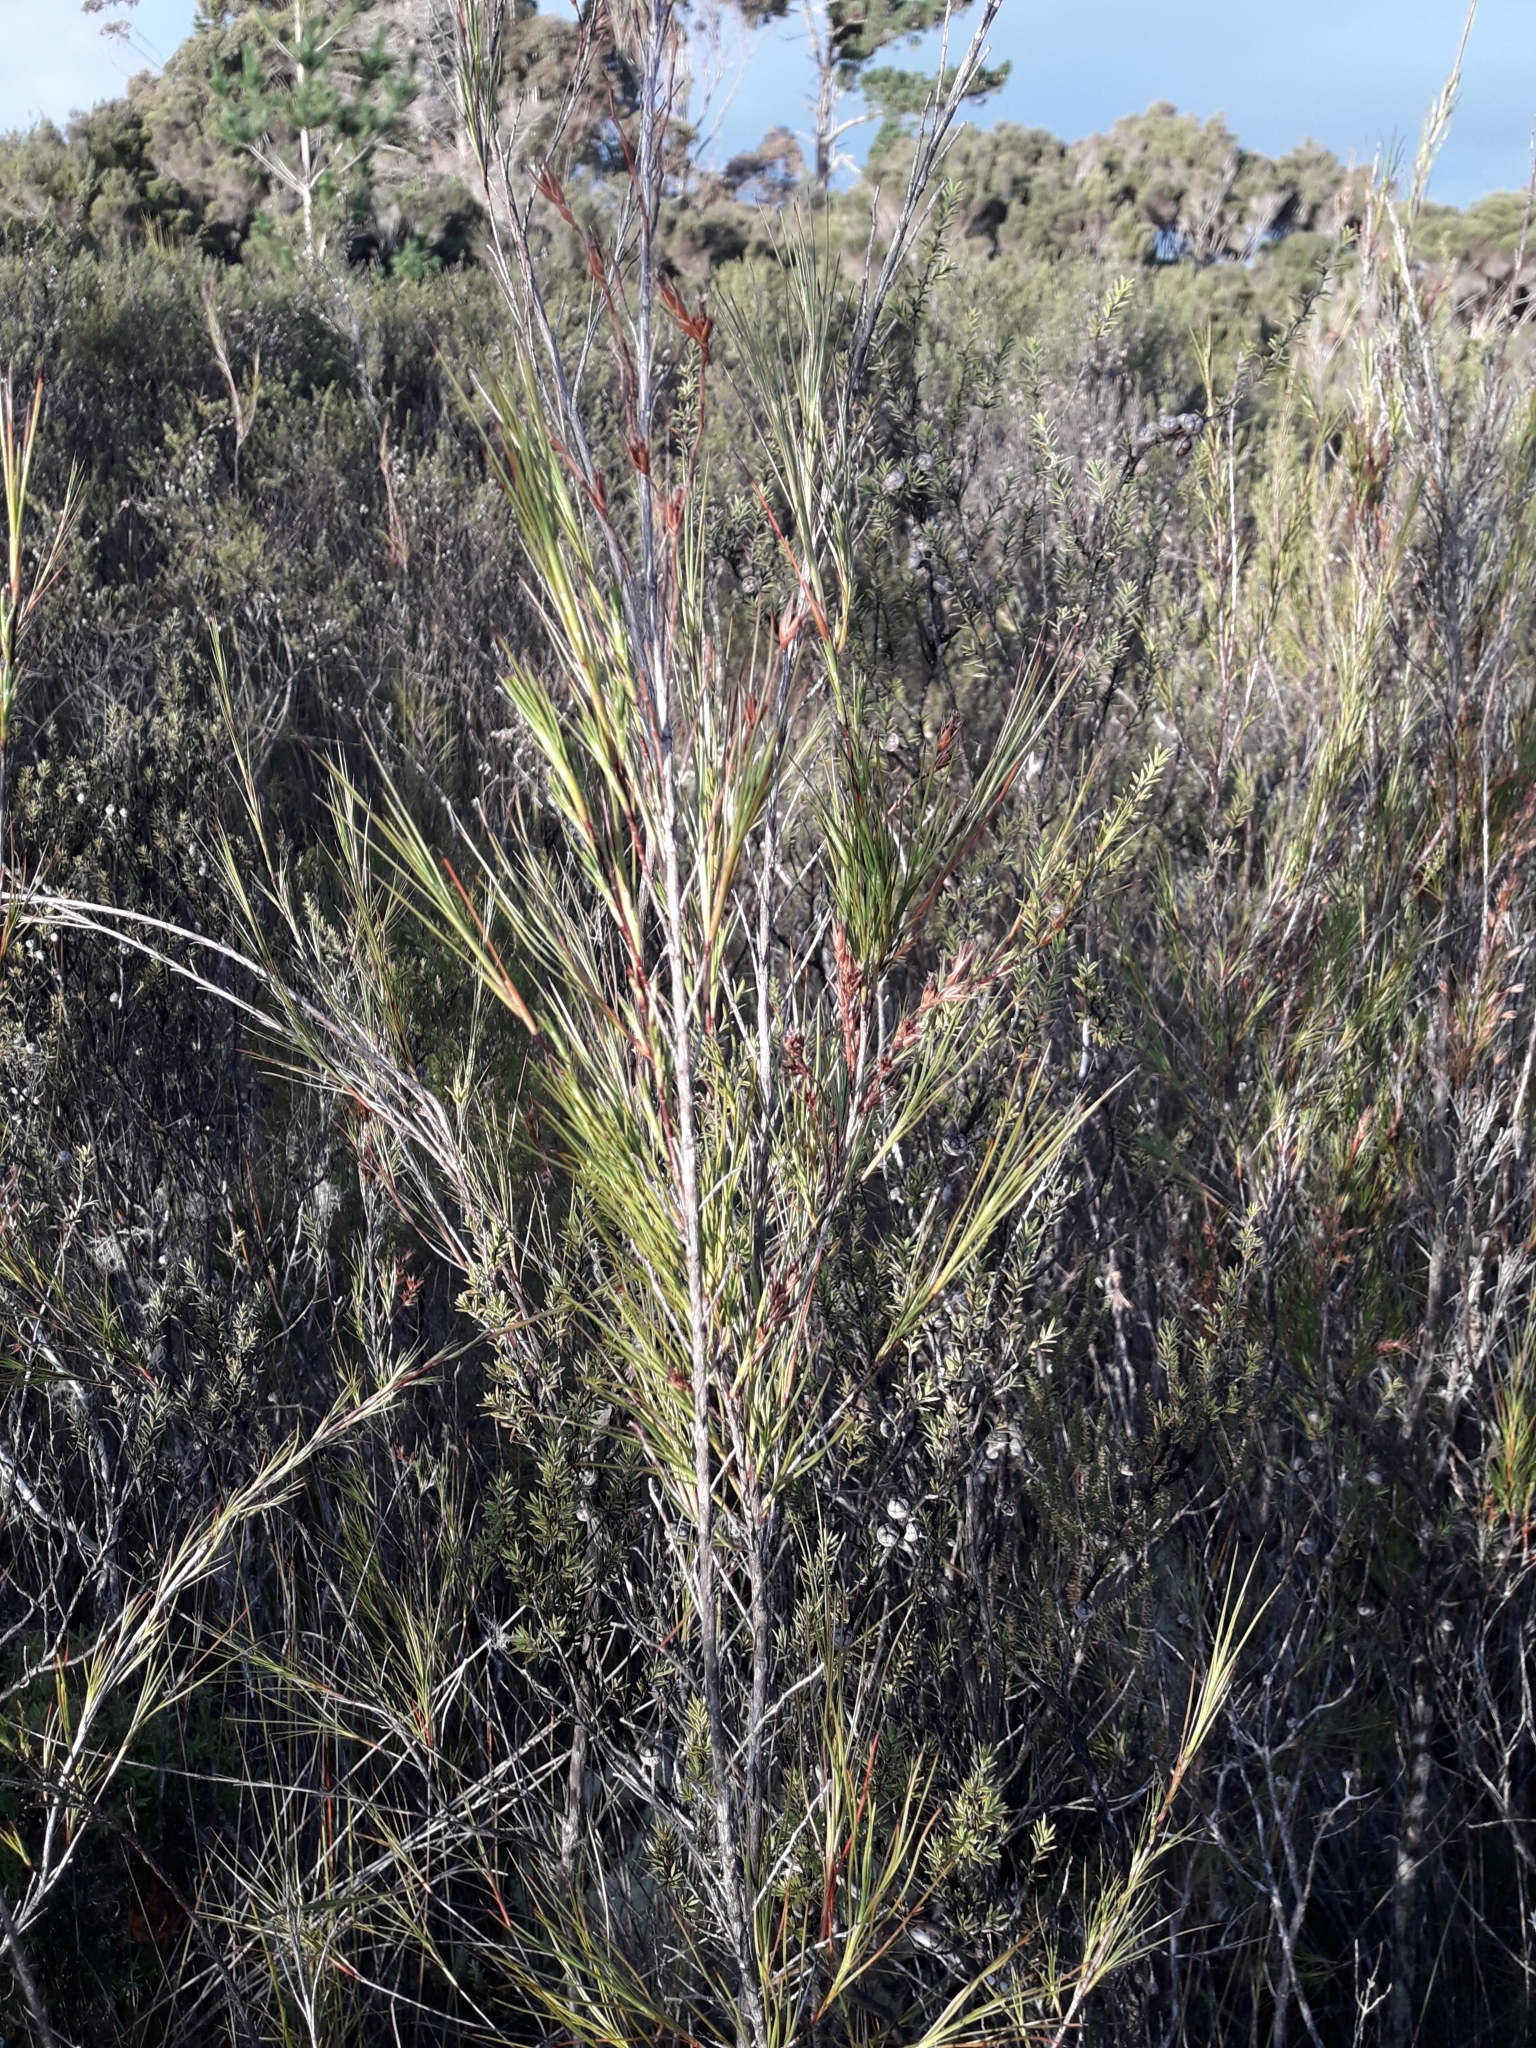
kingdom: Plantae
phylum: Tracheophyta
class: Magnoliopsida
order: Ericales
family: Ericaceae
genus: Dracophyllum
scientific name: Dracophyllum lessonianum
